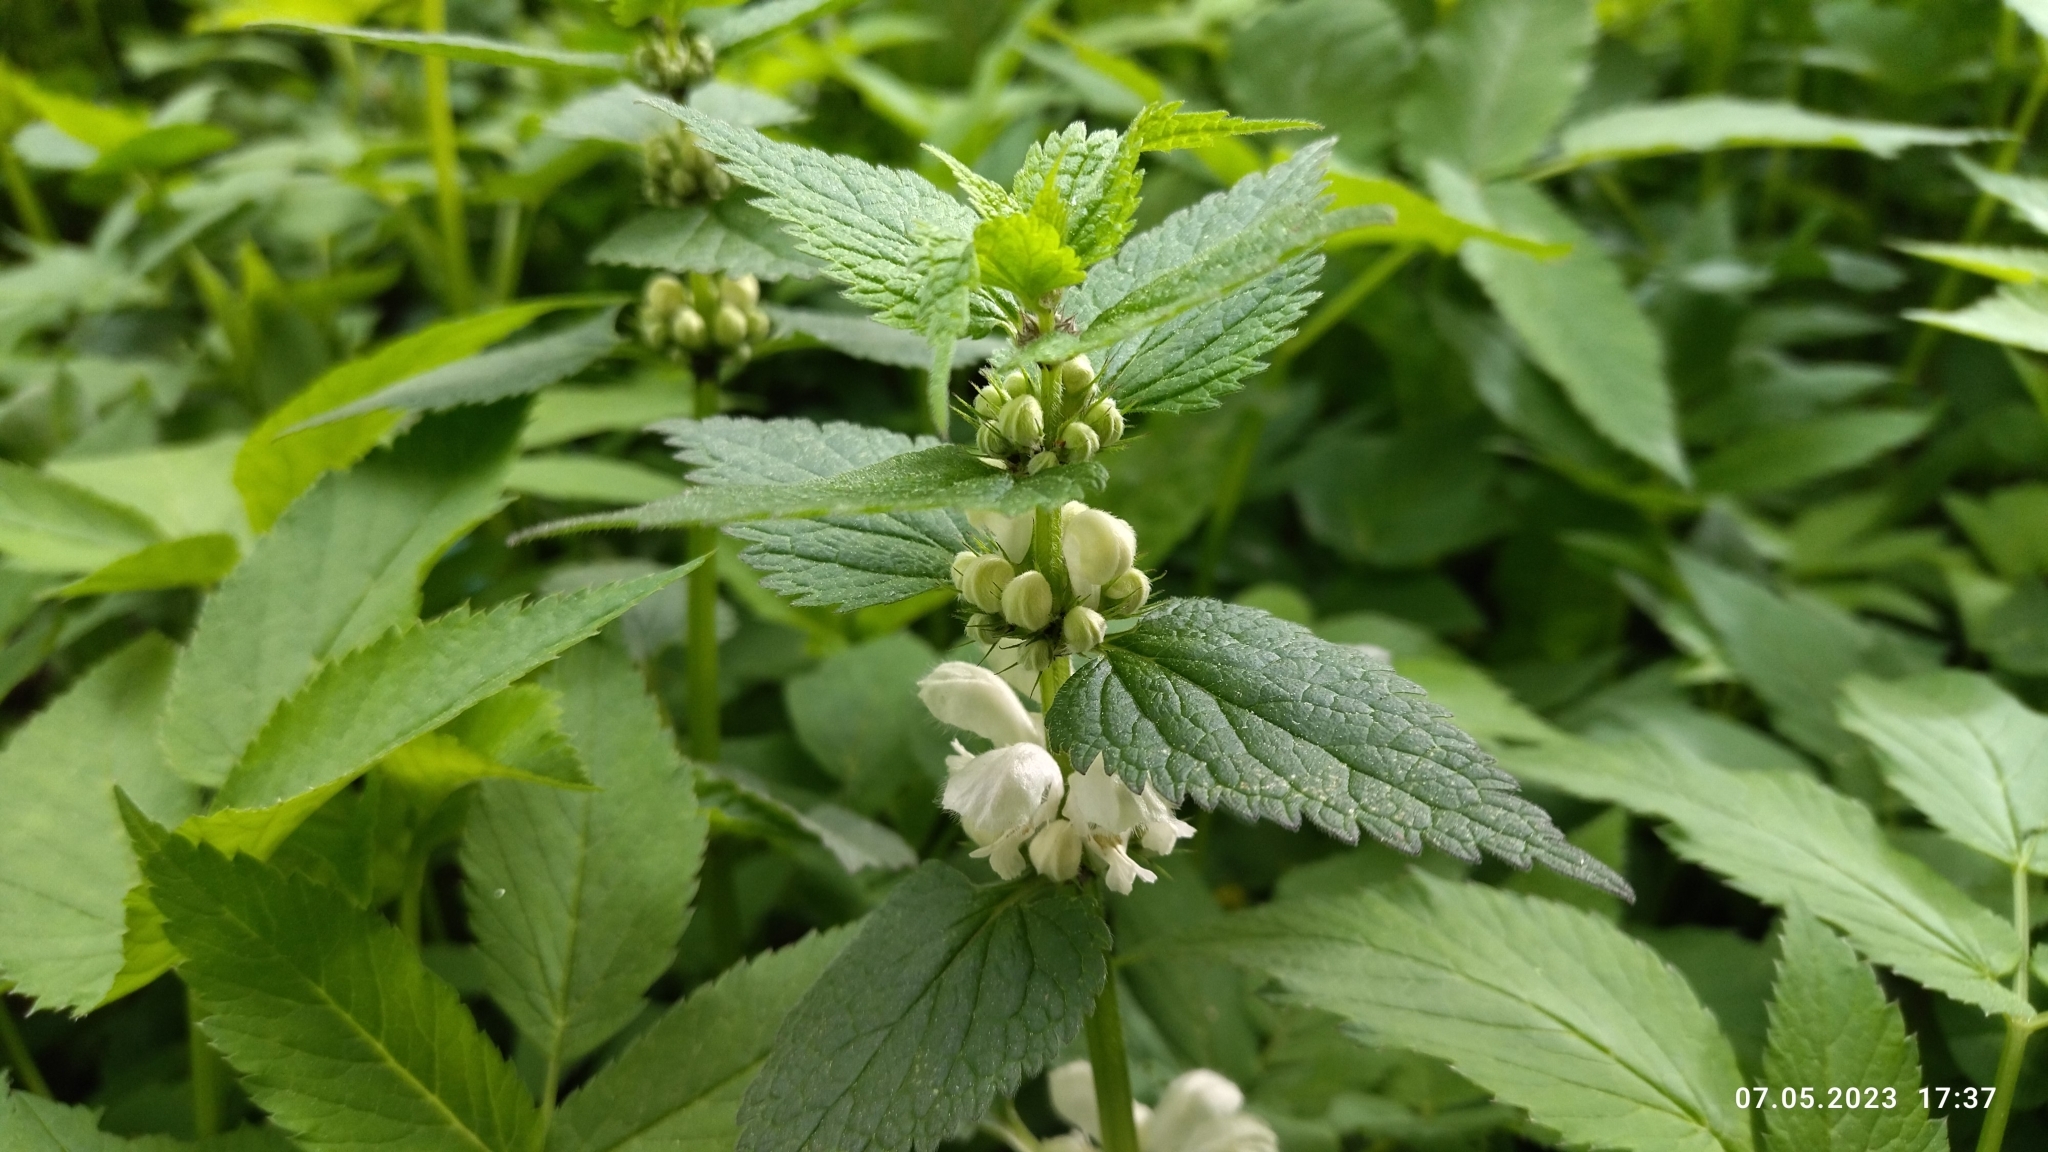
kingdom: Plantae
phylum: Tracheophyta
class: Magnoliopsida
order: Lamiales
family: Lamiaceae
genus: Lamium
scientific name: Lamium album
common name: White dead-nettle
